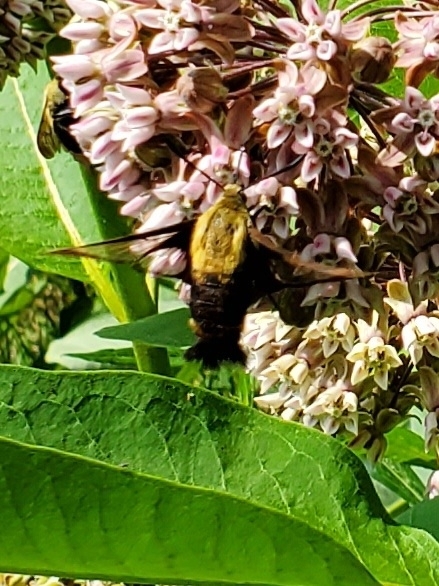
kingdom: Animalia
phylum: Arthropoda
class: Insecta
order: Lepidoptera
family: Sphingidae
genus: Hemaris
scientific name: Hemaris diffinis
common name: Bumblebee moth
